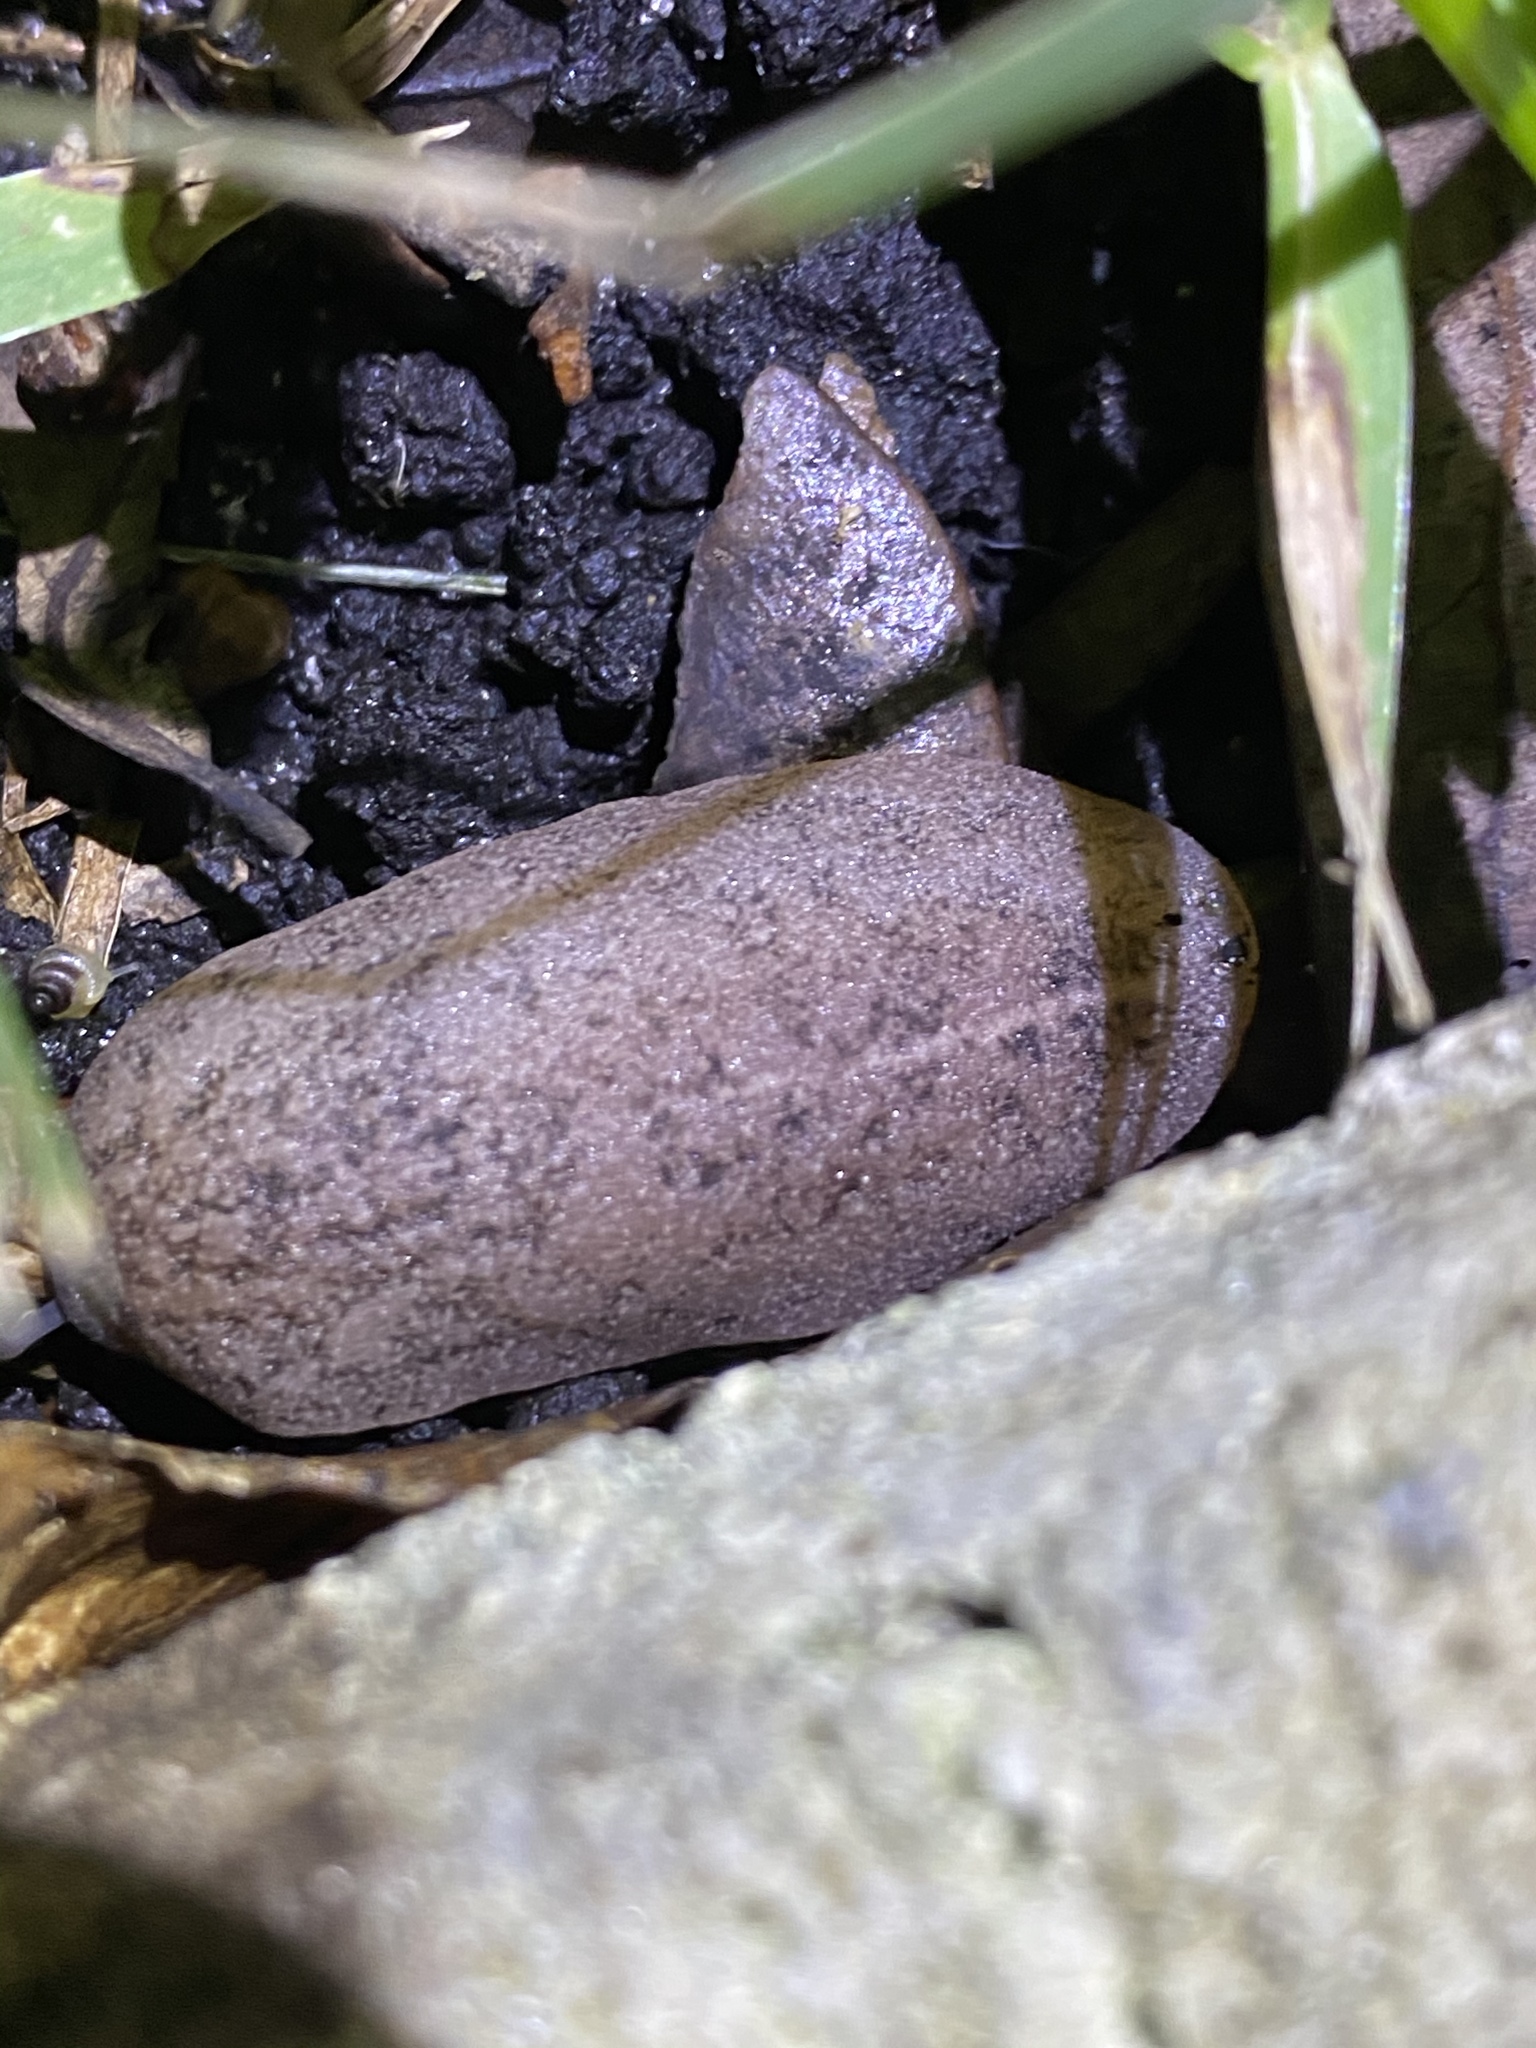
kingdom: Animalia
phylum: Mollusca
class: Gastropoda
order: Systellommatophora
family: Veronicellidae
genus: Leidyula
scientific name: Leidyula floridana
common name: Florida leatherleaf
